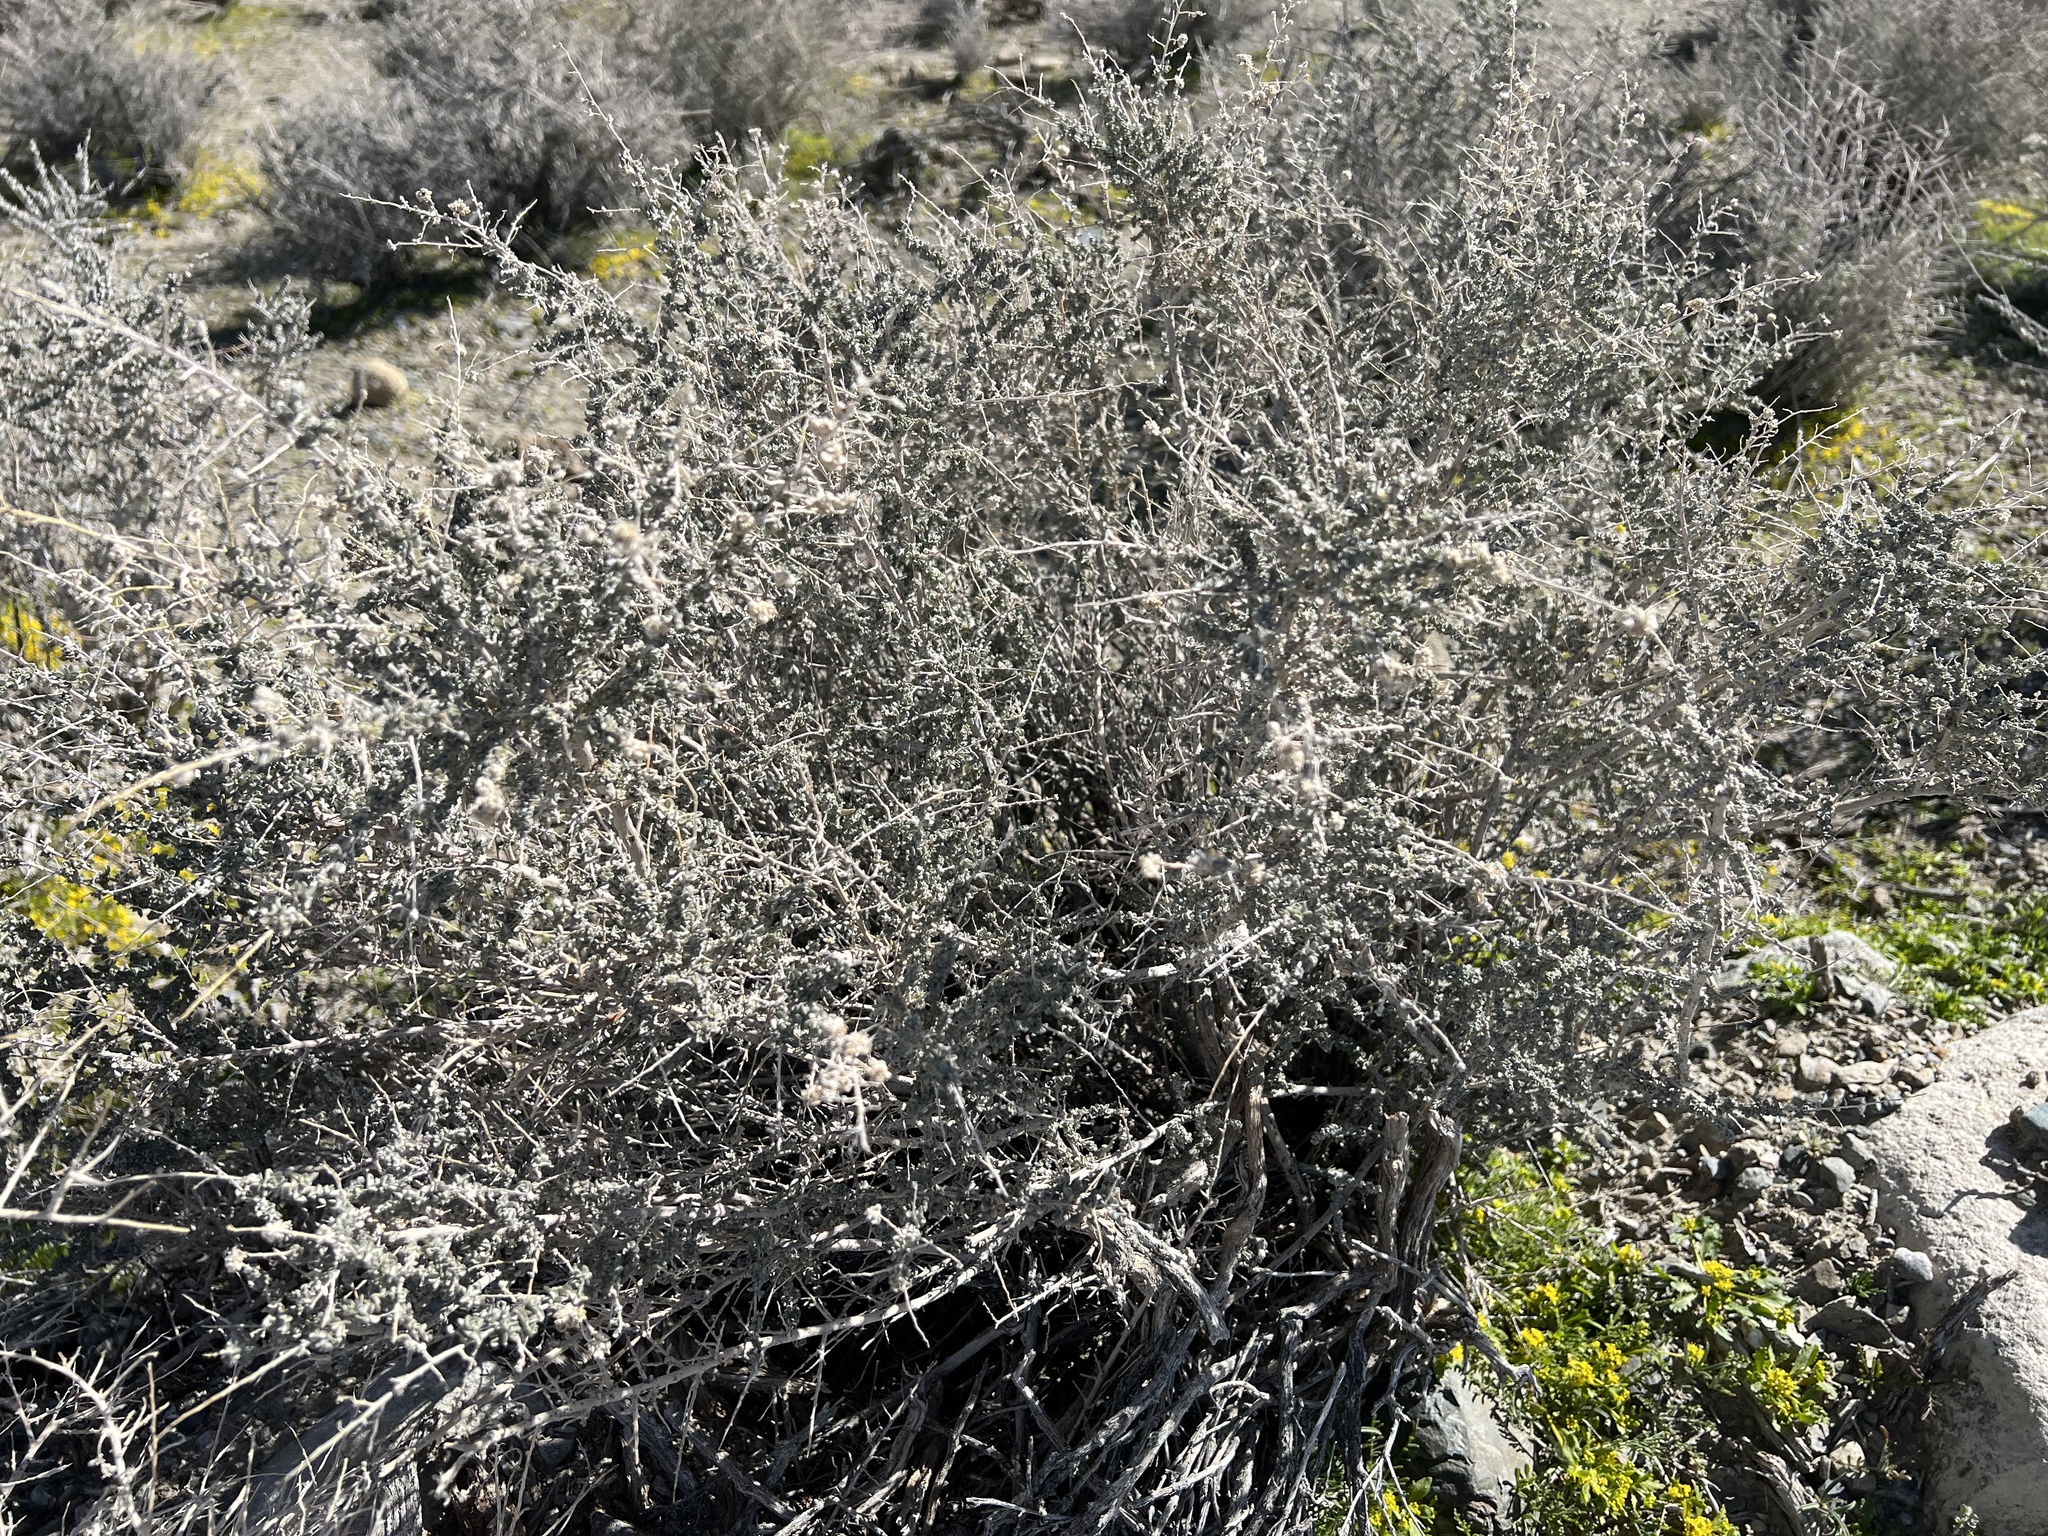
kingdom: Plantae
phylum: Tracheophyta
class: Magnoliopsida
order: Caryophyllales
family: Amaranthaceae
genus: Atriplex
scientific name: Atriplex polycarpa
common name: Desert saltbush
